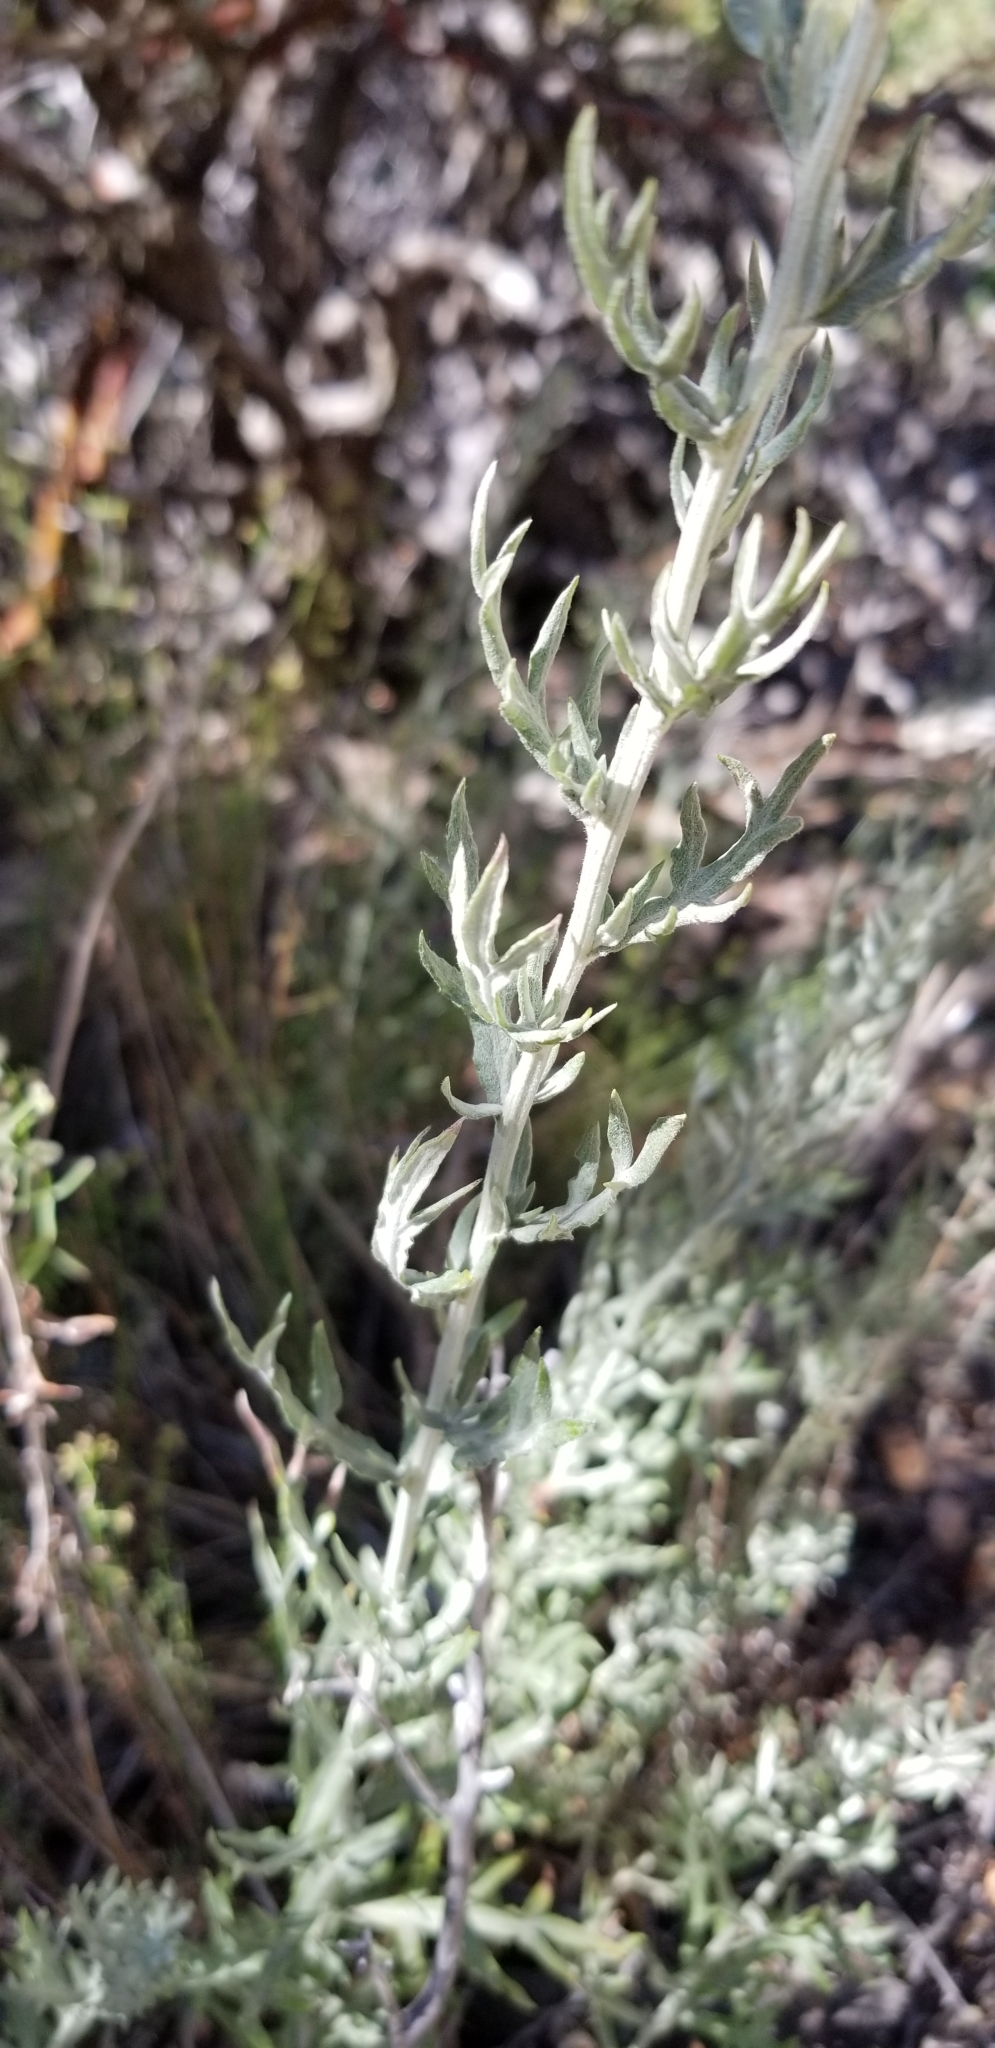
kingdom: Plantae
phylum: Tracheophyta
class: Magnoliopsida
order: Asterales
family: Asteraceae
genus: Artemisia
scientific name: Artemisia ludoviciana
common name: Western mugwort
